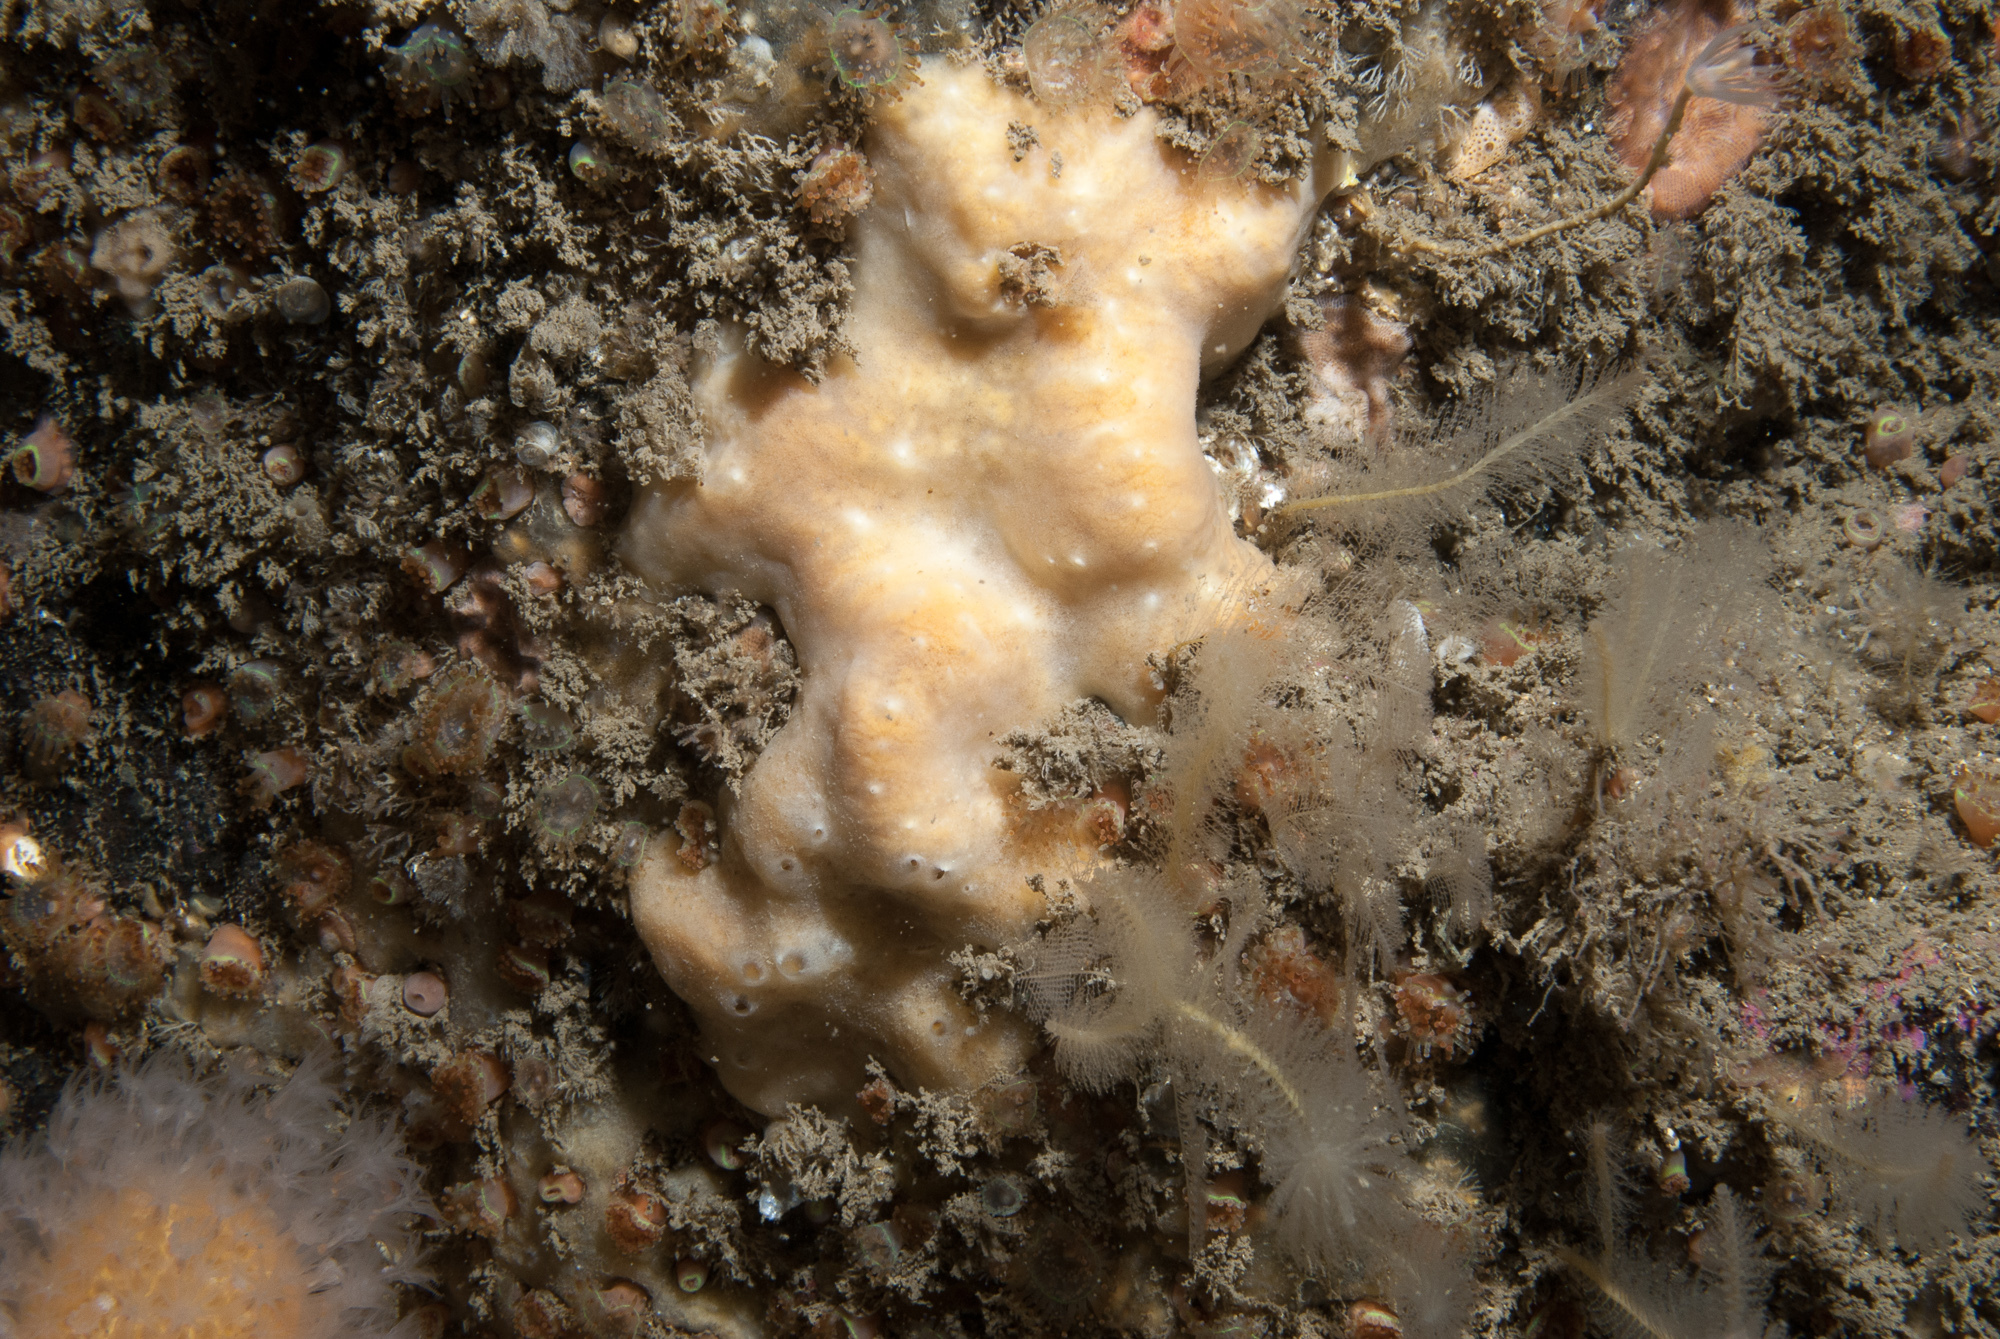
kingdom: Animalia
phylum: Porifera
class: Demospongiae
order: Poecilosclerida
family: Myxillidae
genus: Myxilla
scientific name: Myxilla fimbriata
